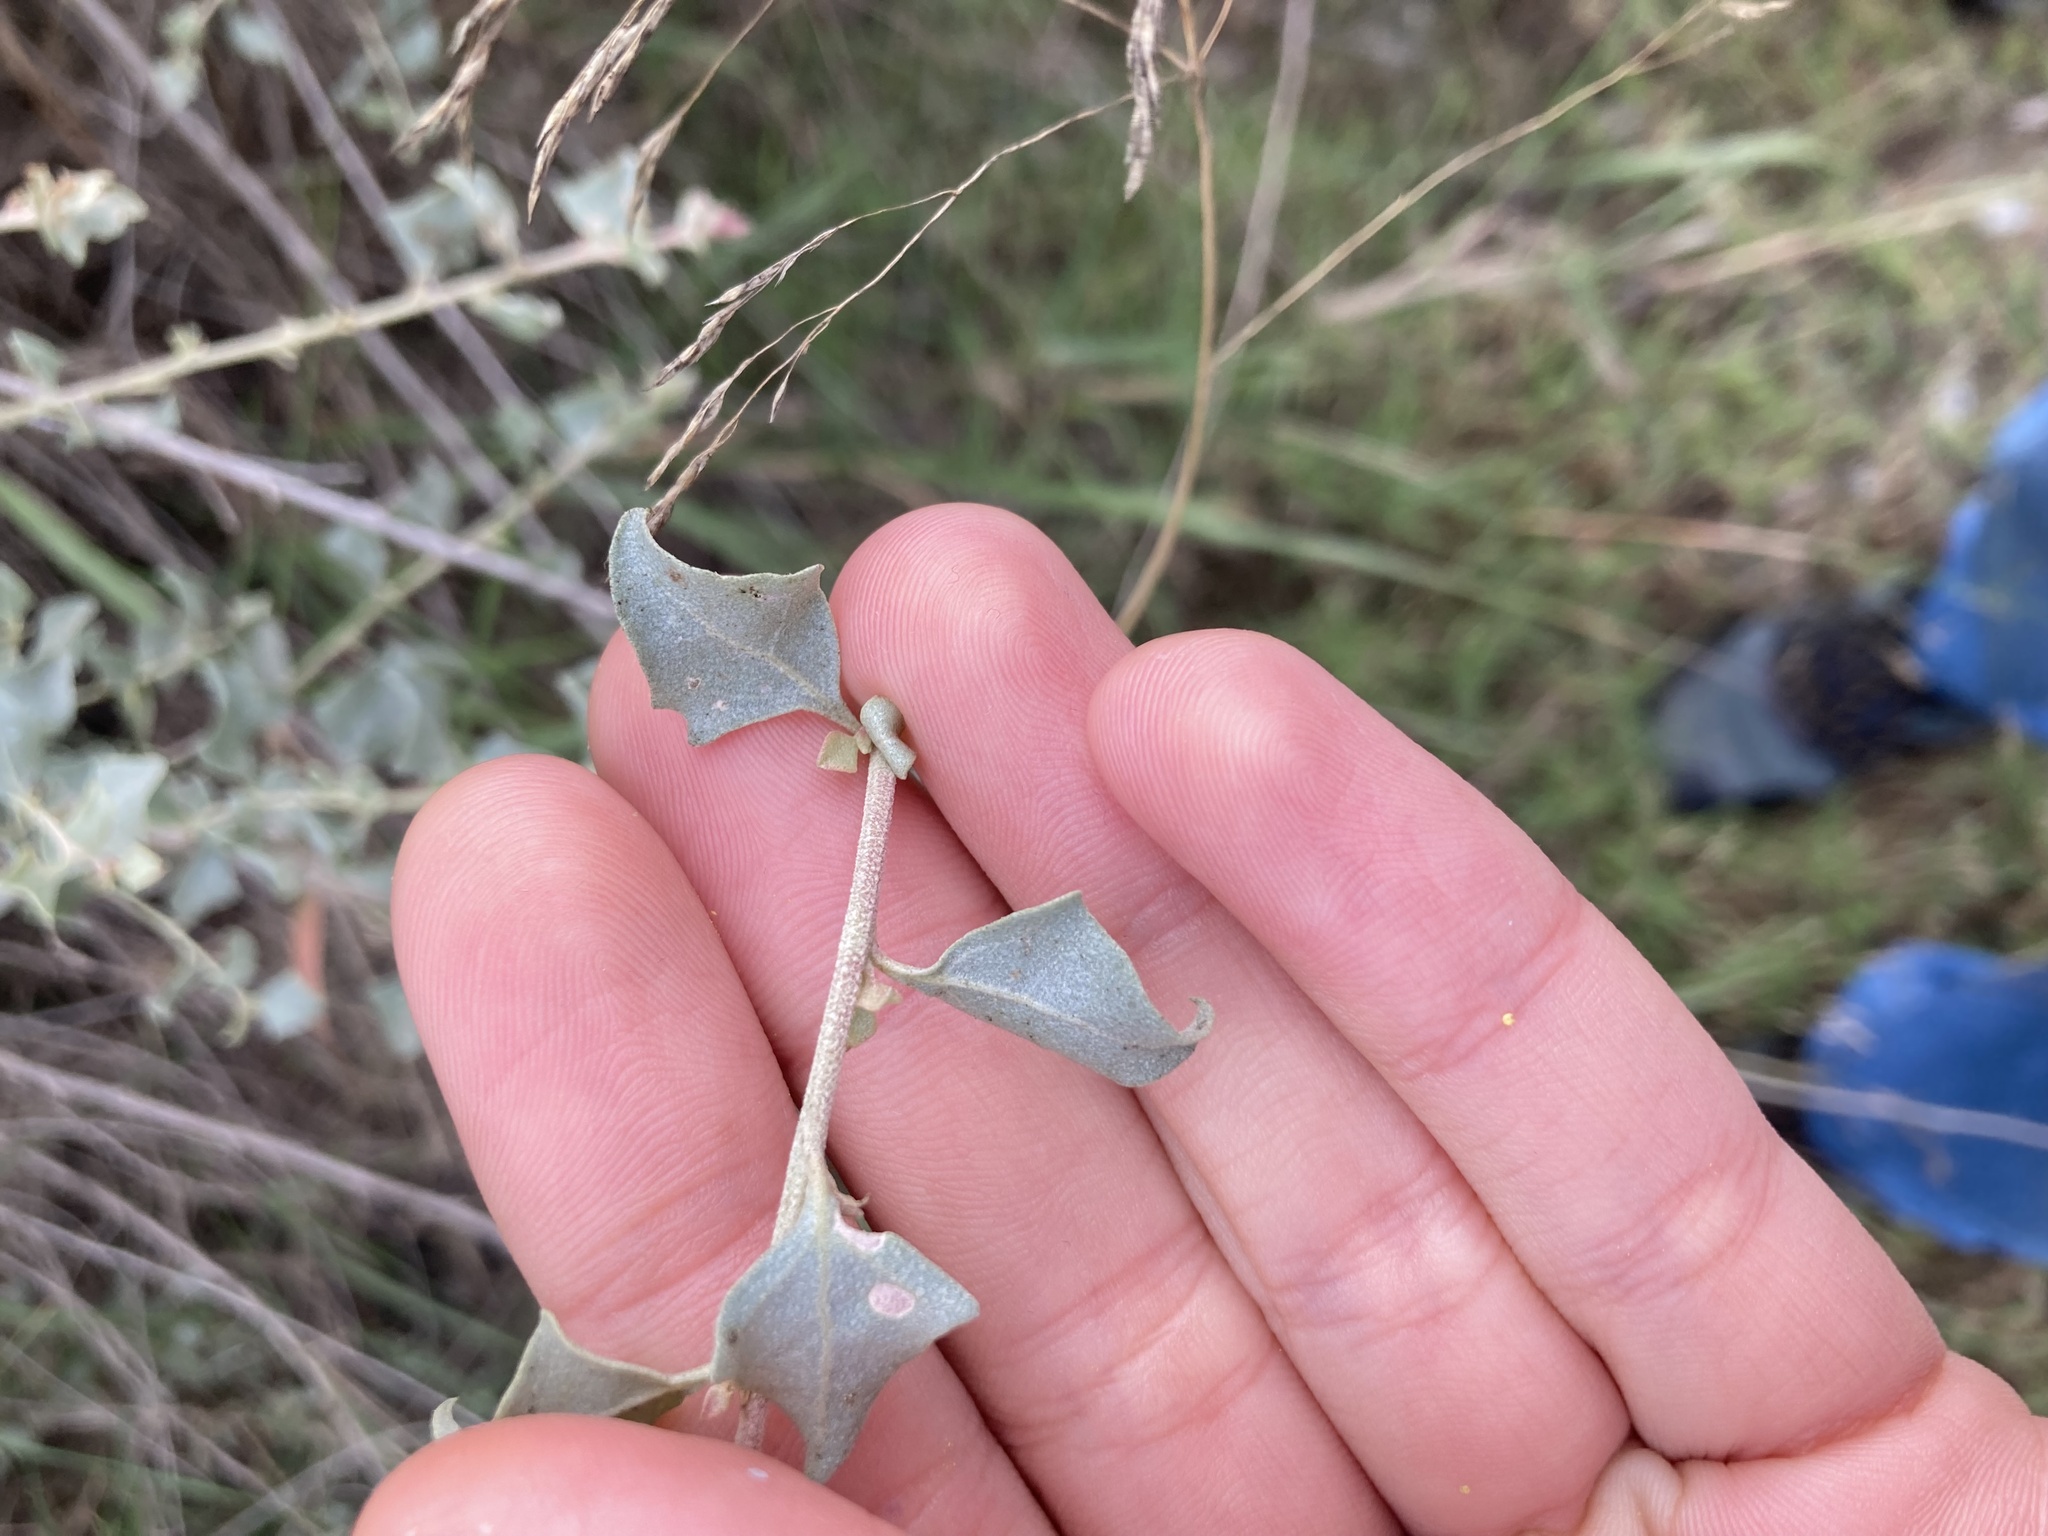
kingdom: Plantae
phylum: Tracheophyta
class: Magnoliopsida
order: Caryophyllales
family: Amaranthaceae
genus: Atriplex
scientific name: Atriplex halimus
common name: Shrubby orache
